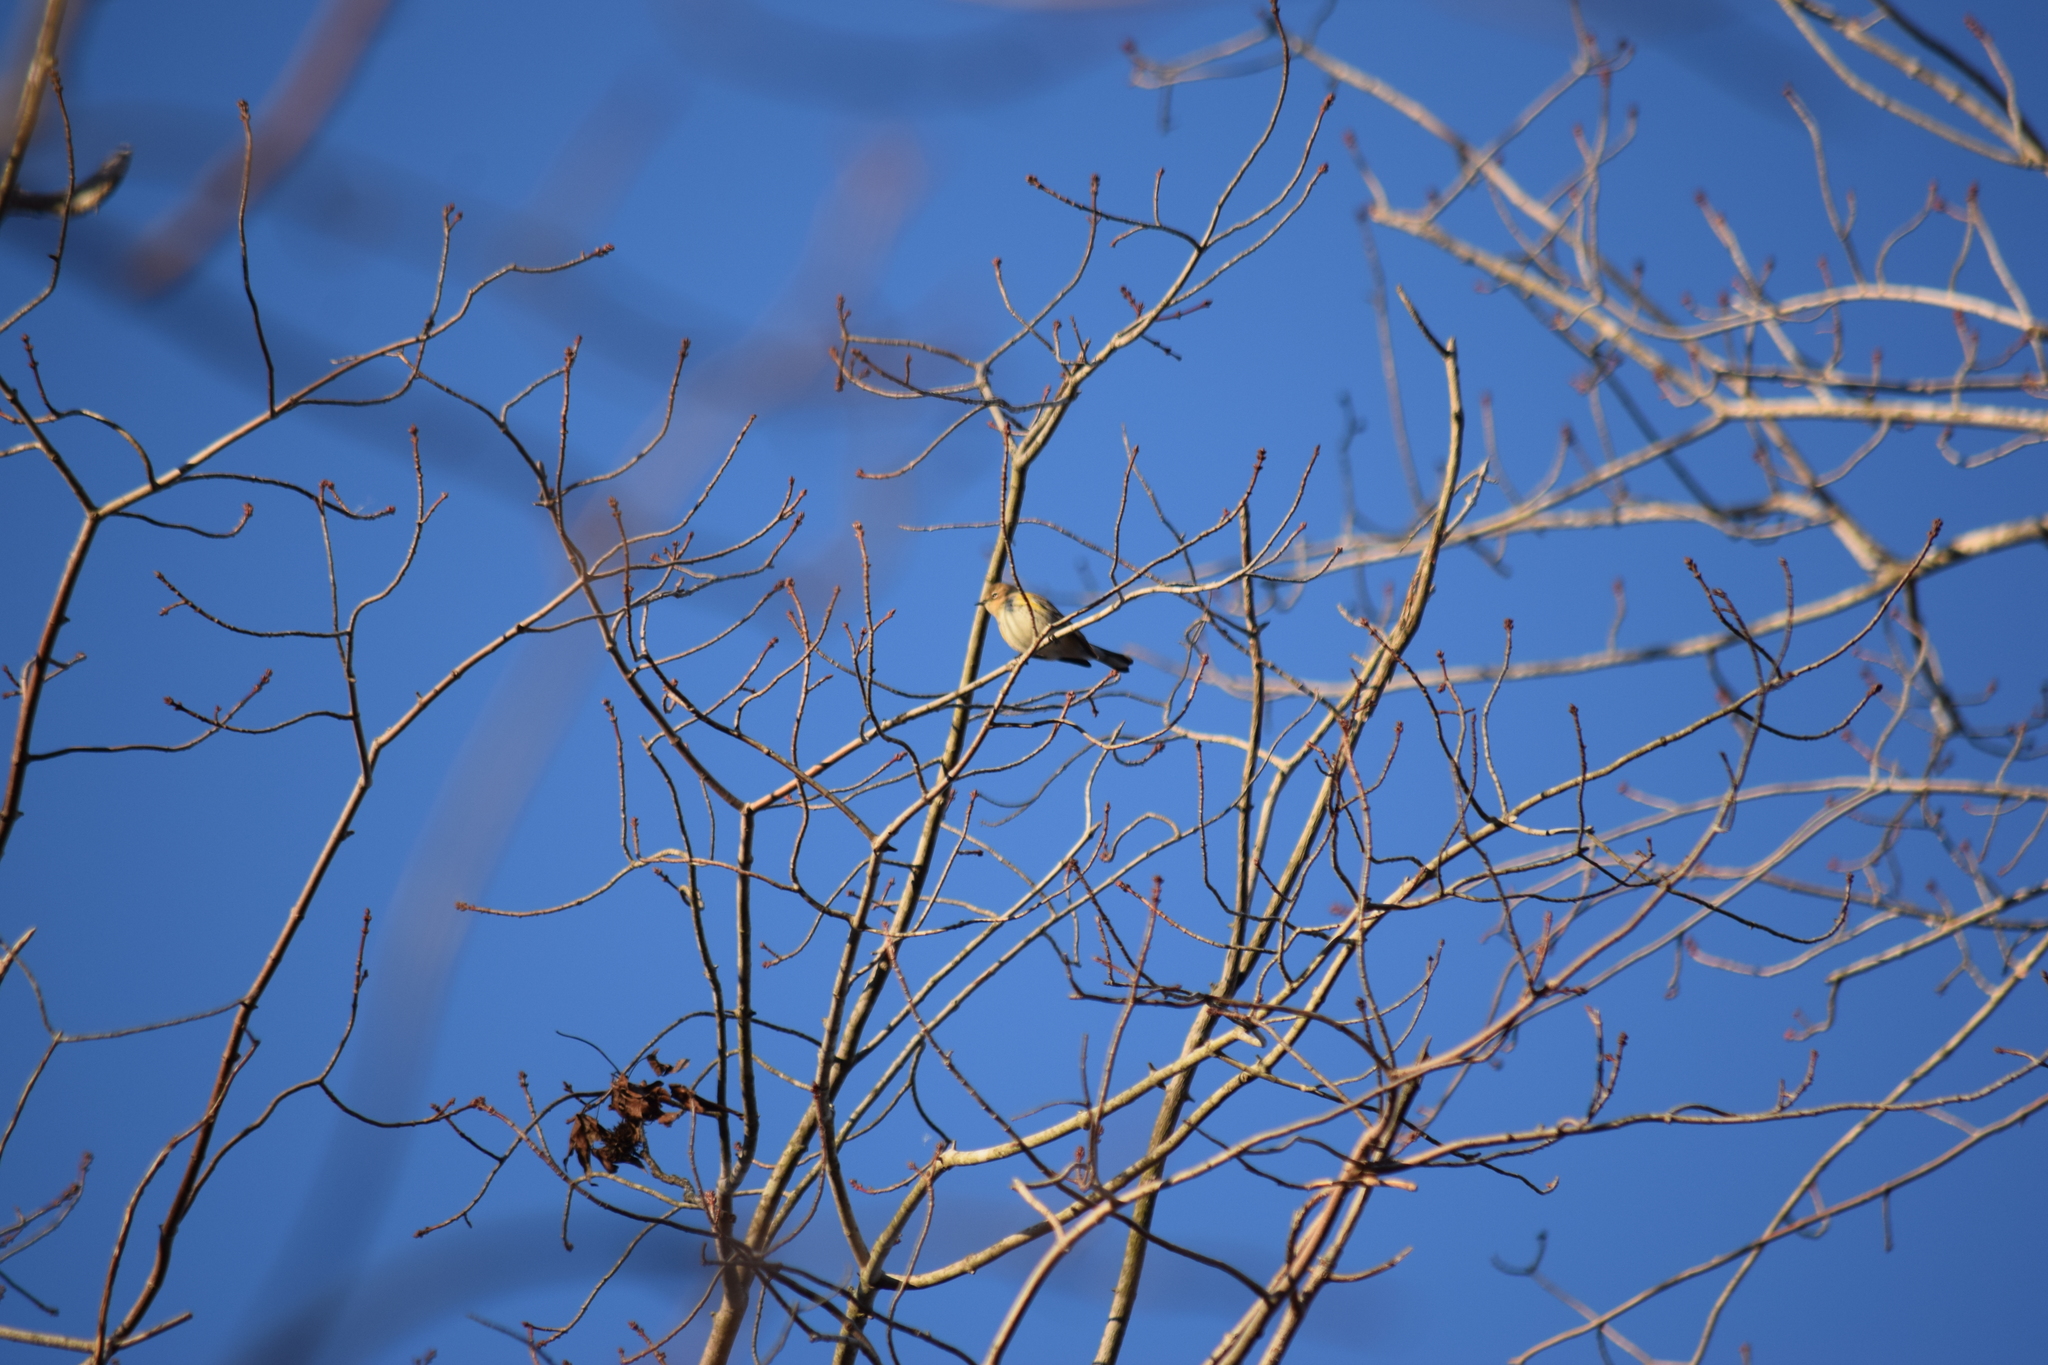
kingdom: Animalia
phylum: Chordata
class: Aves
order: Passeriformes
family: Parulidae
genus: Setophaga
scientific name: Setophaga coronata
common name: Myrtle warbler
